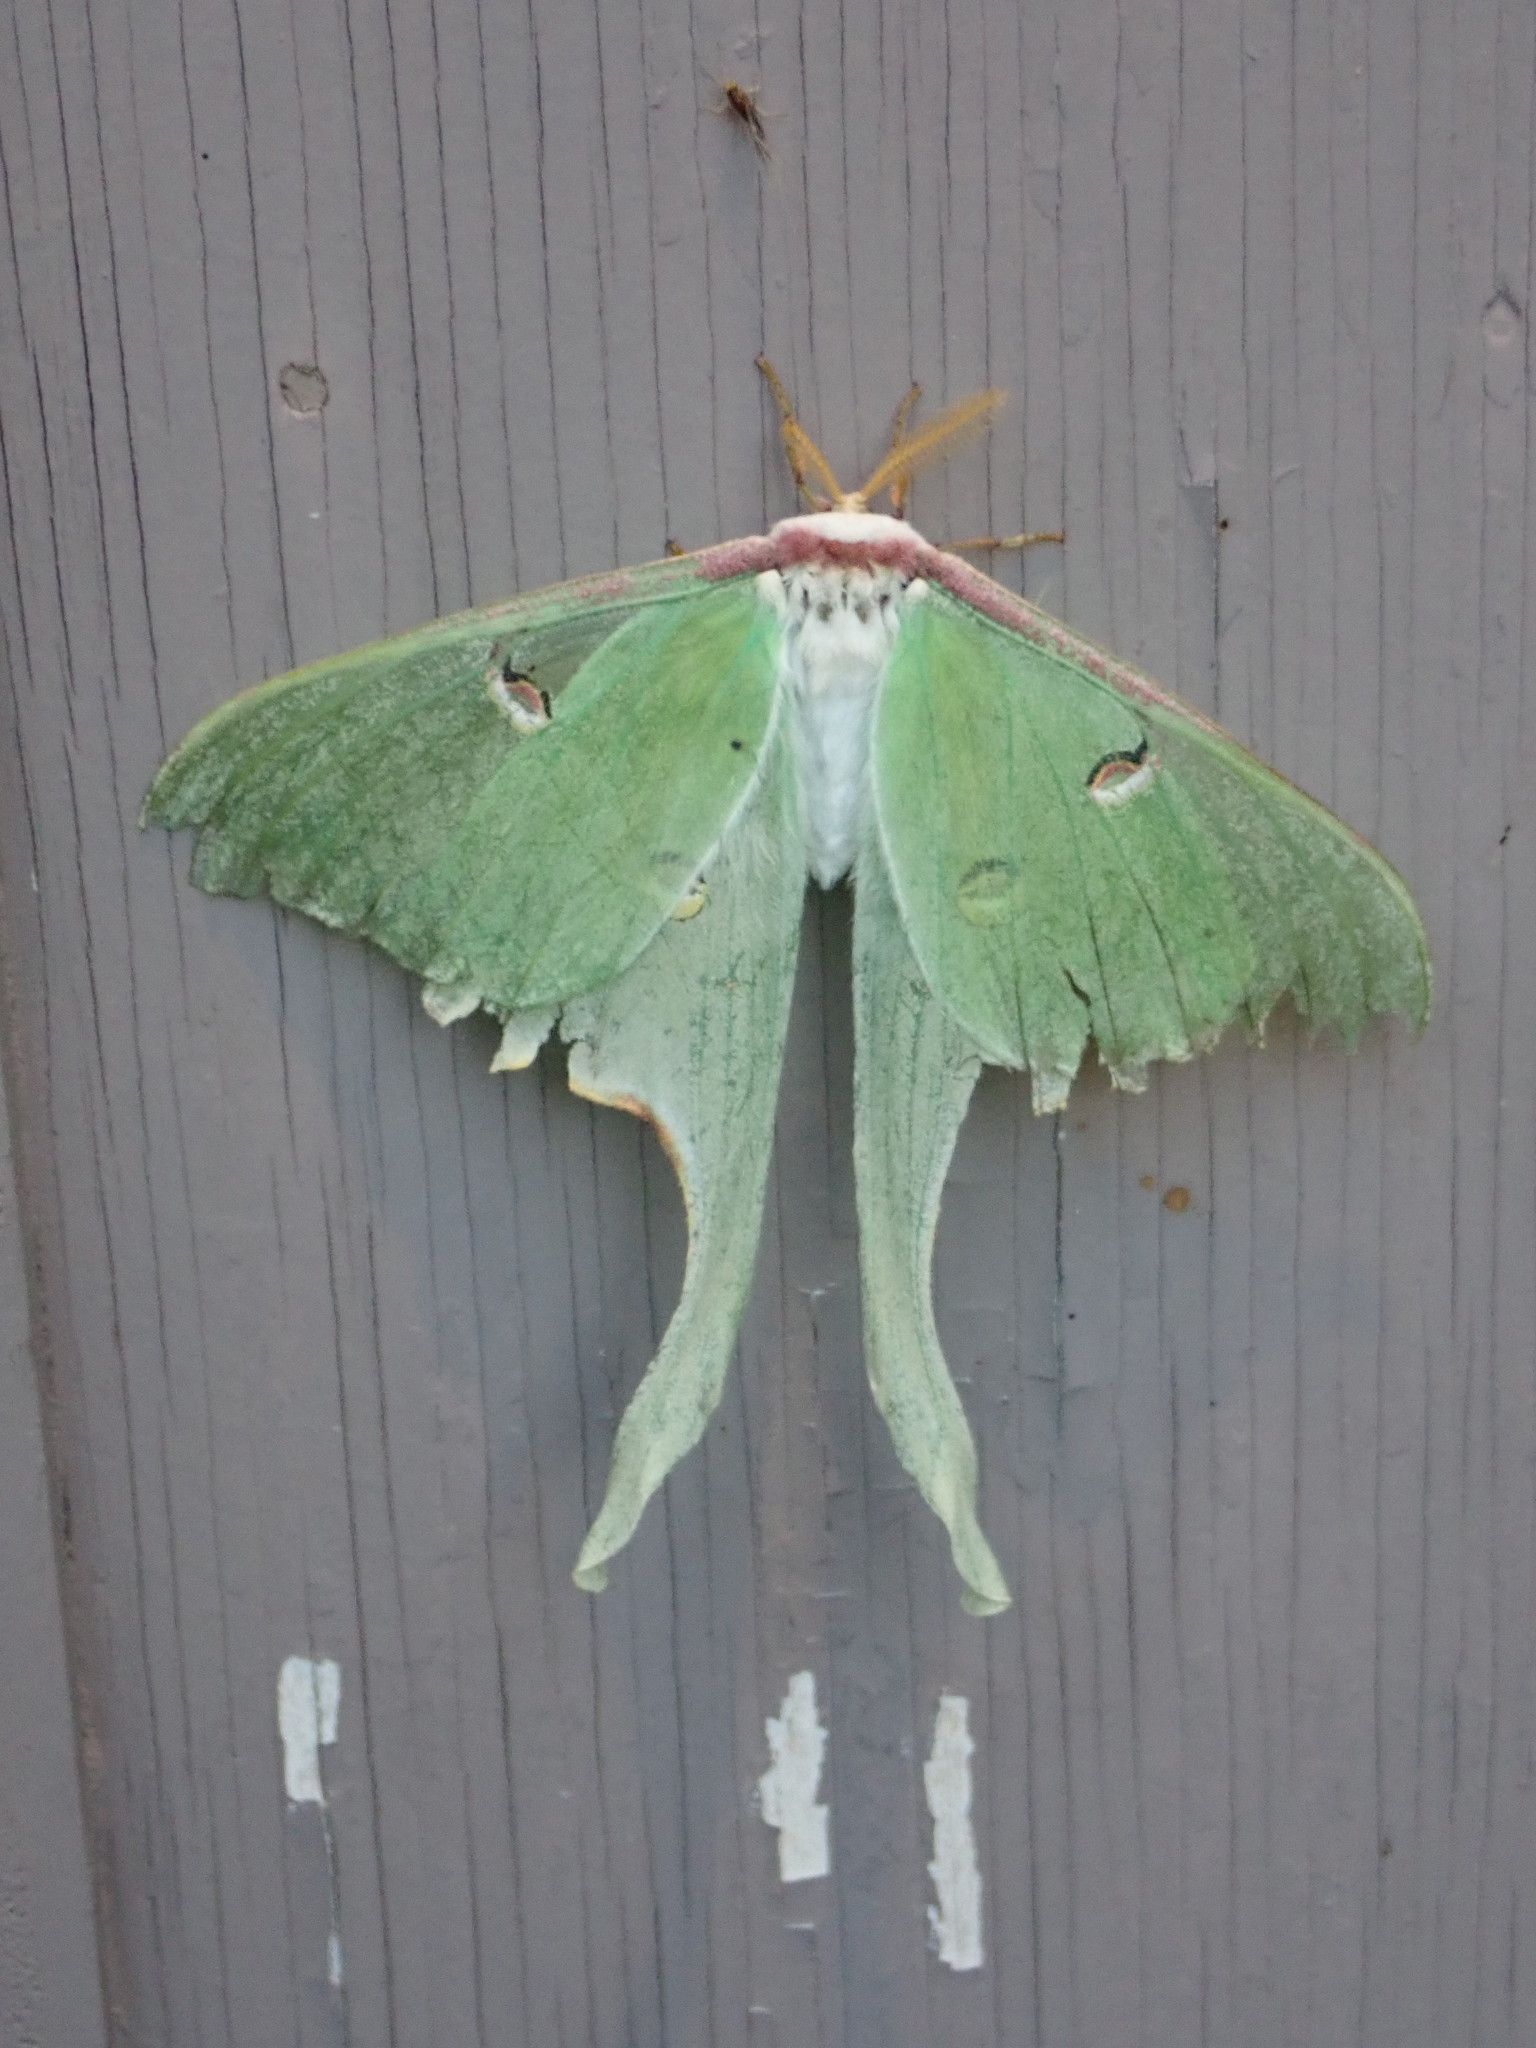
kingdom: Animalia
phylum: Arthropoda
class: Insecta
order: Lepidoptera
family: Saturniidae
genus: Actias
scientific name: Actias luna
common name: Luna moth
